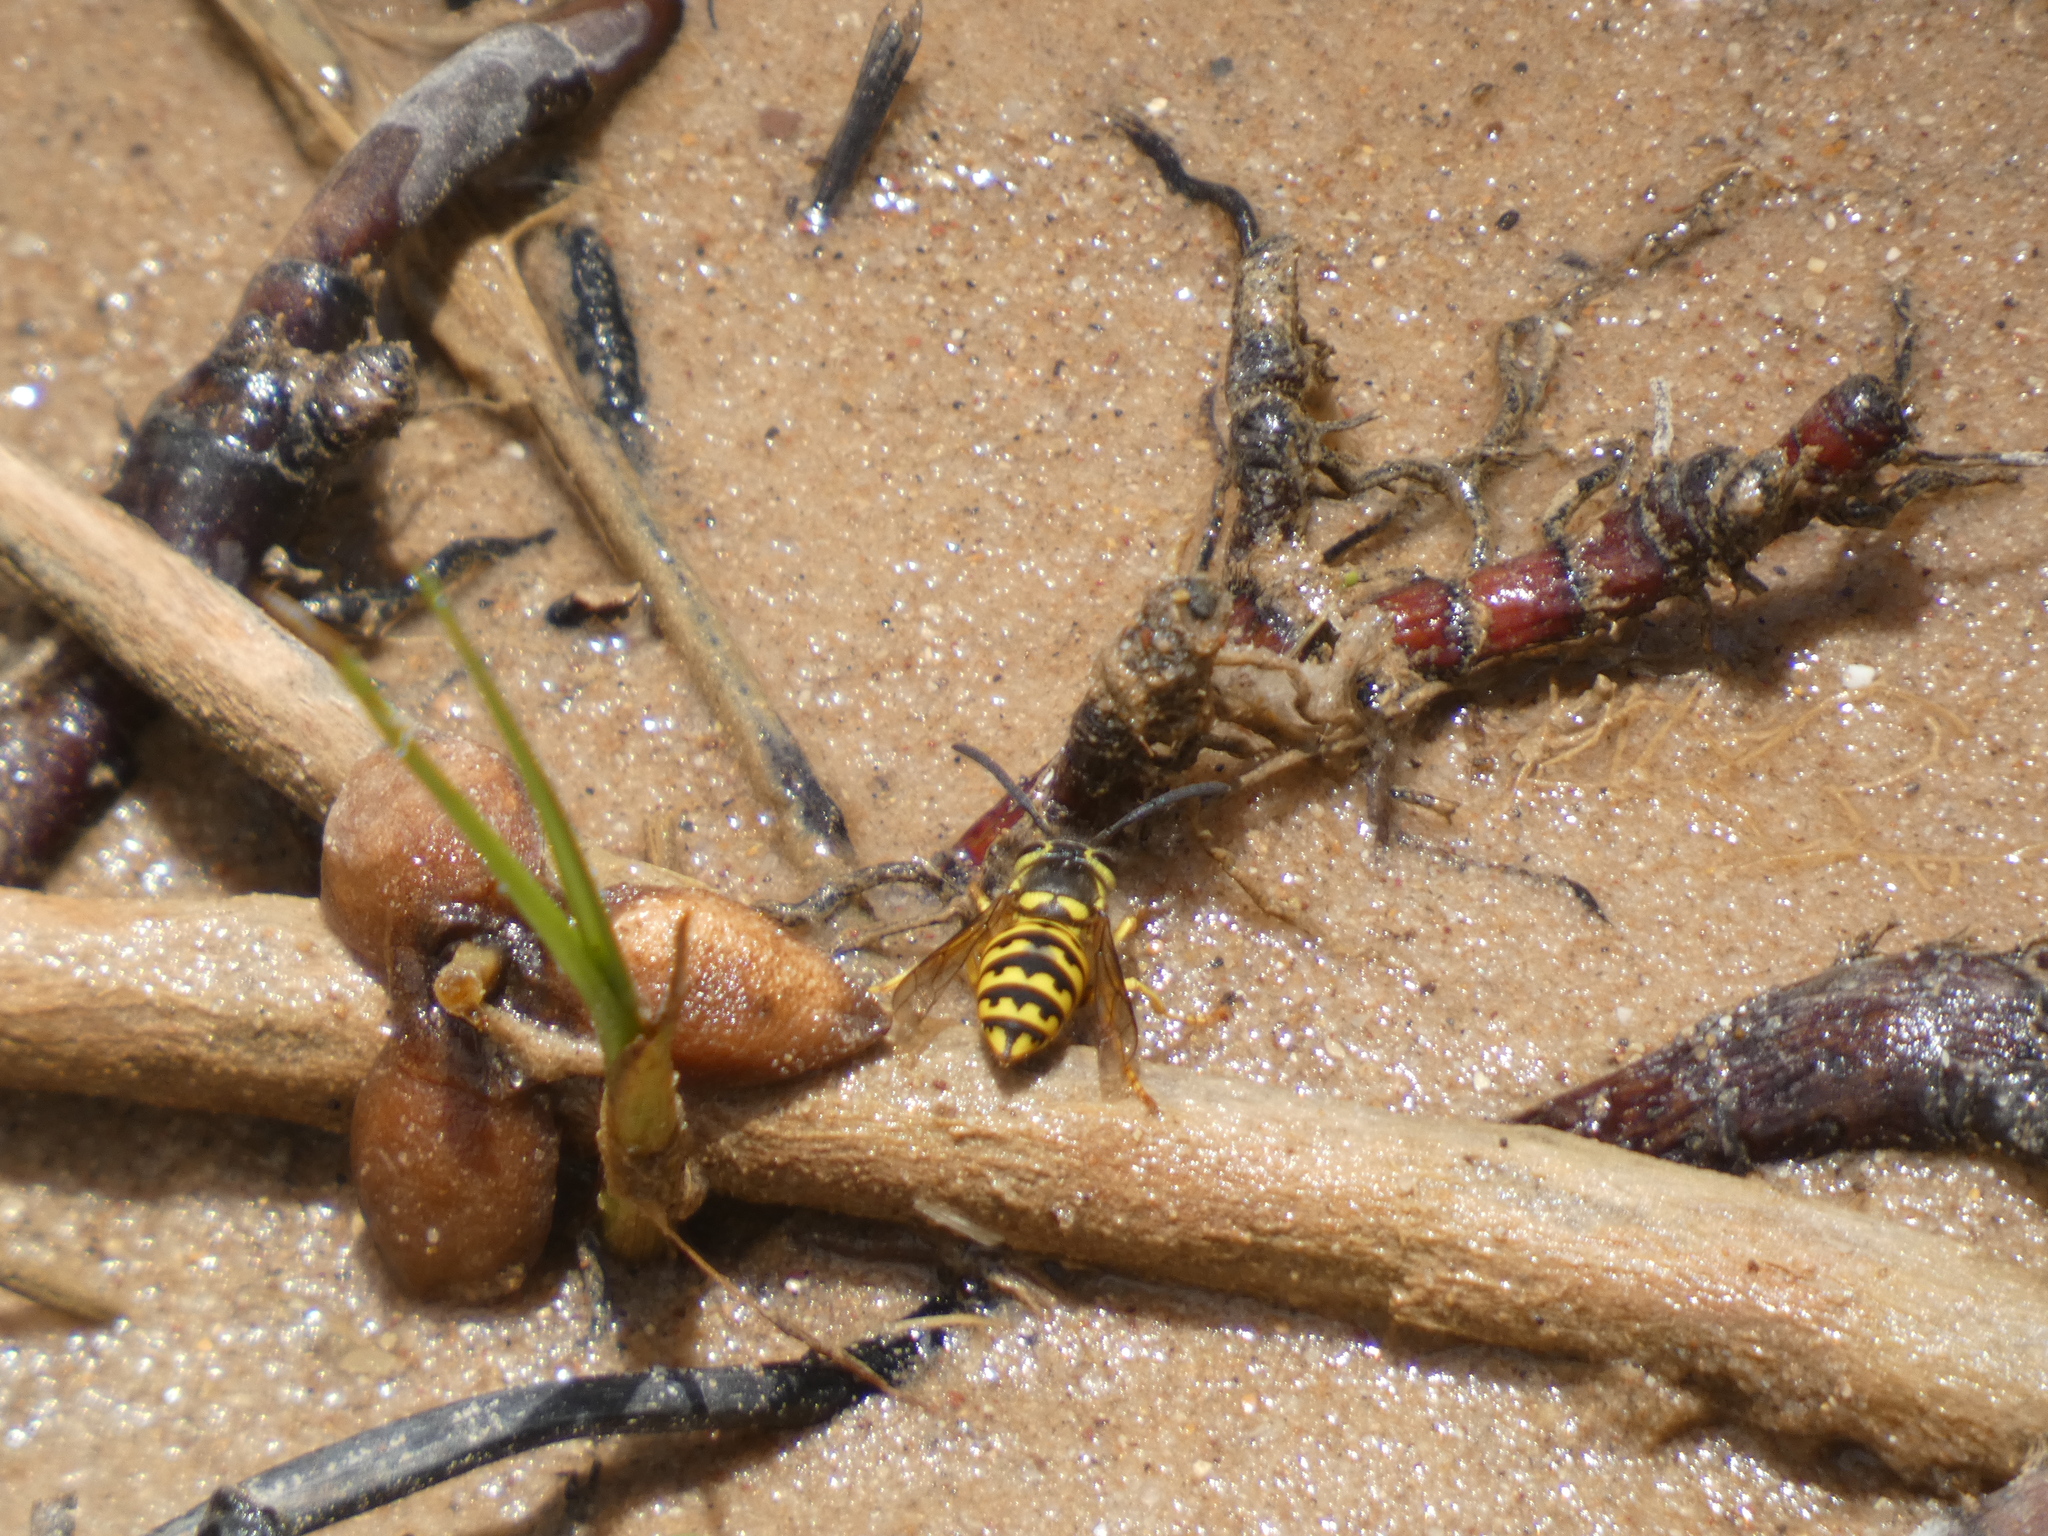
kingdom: Animalia
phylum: Arthropoda
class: Insecta
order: Hymenoptera
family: Vespidae
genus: Vespula
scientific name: Vespula pensylvanica
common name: Western yellowjacket
